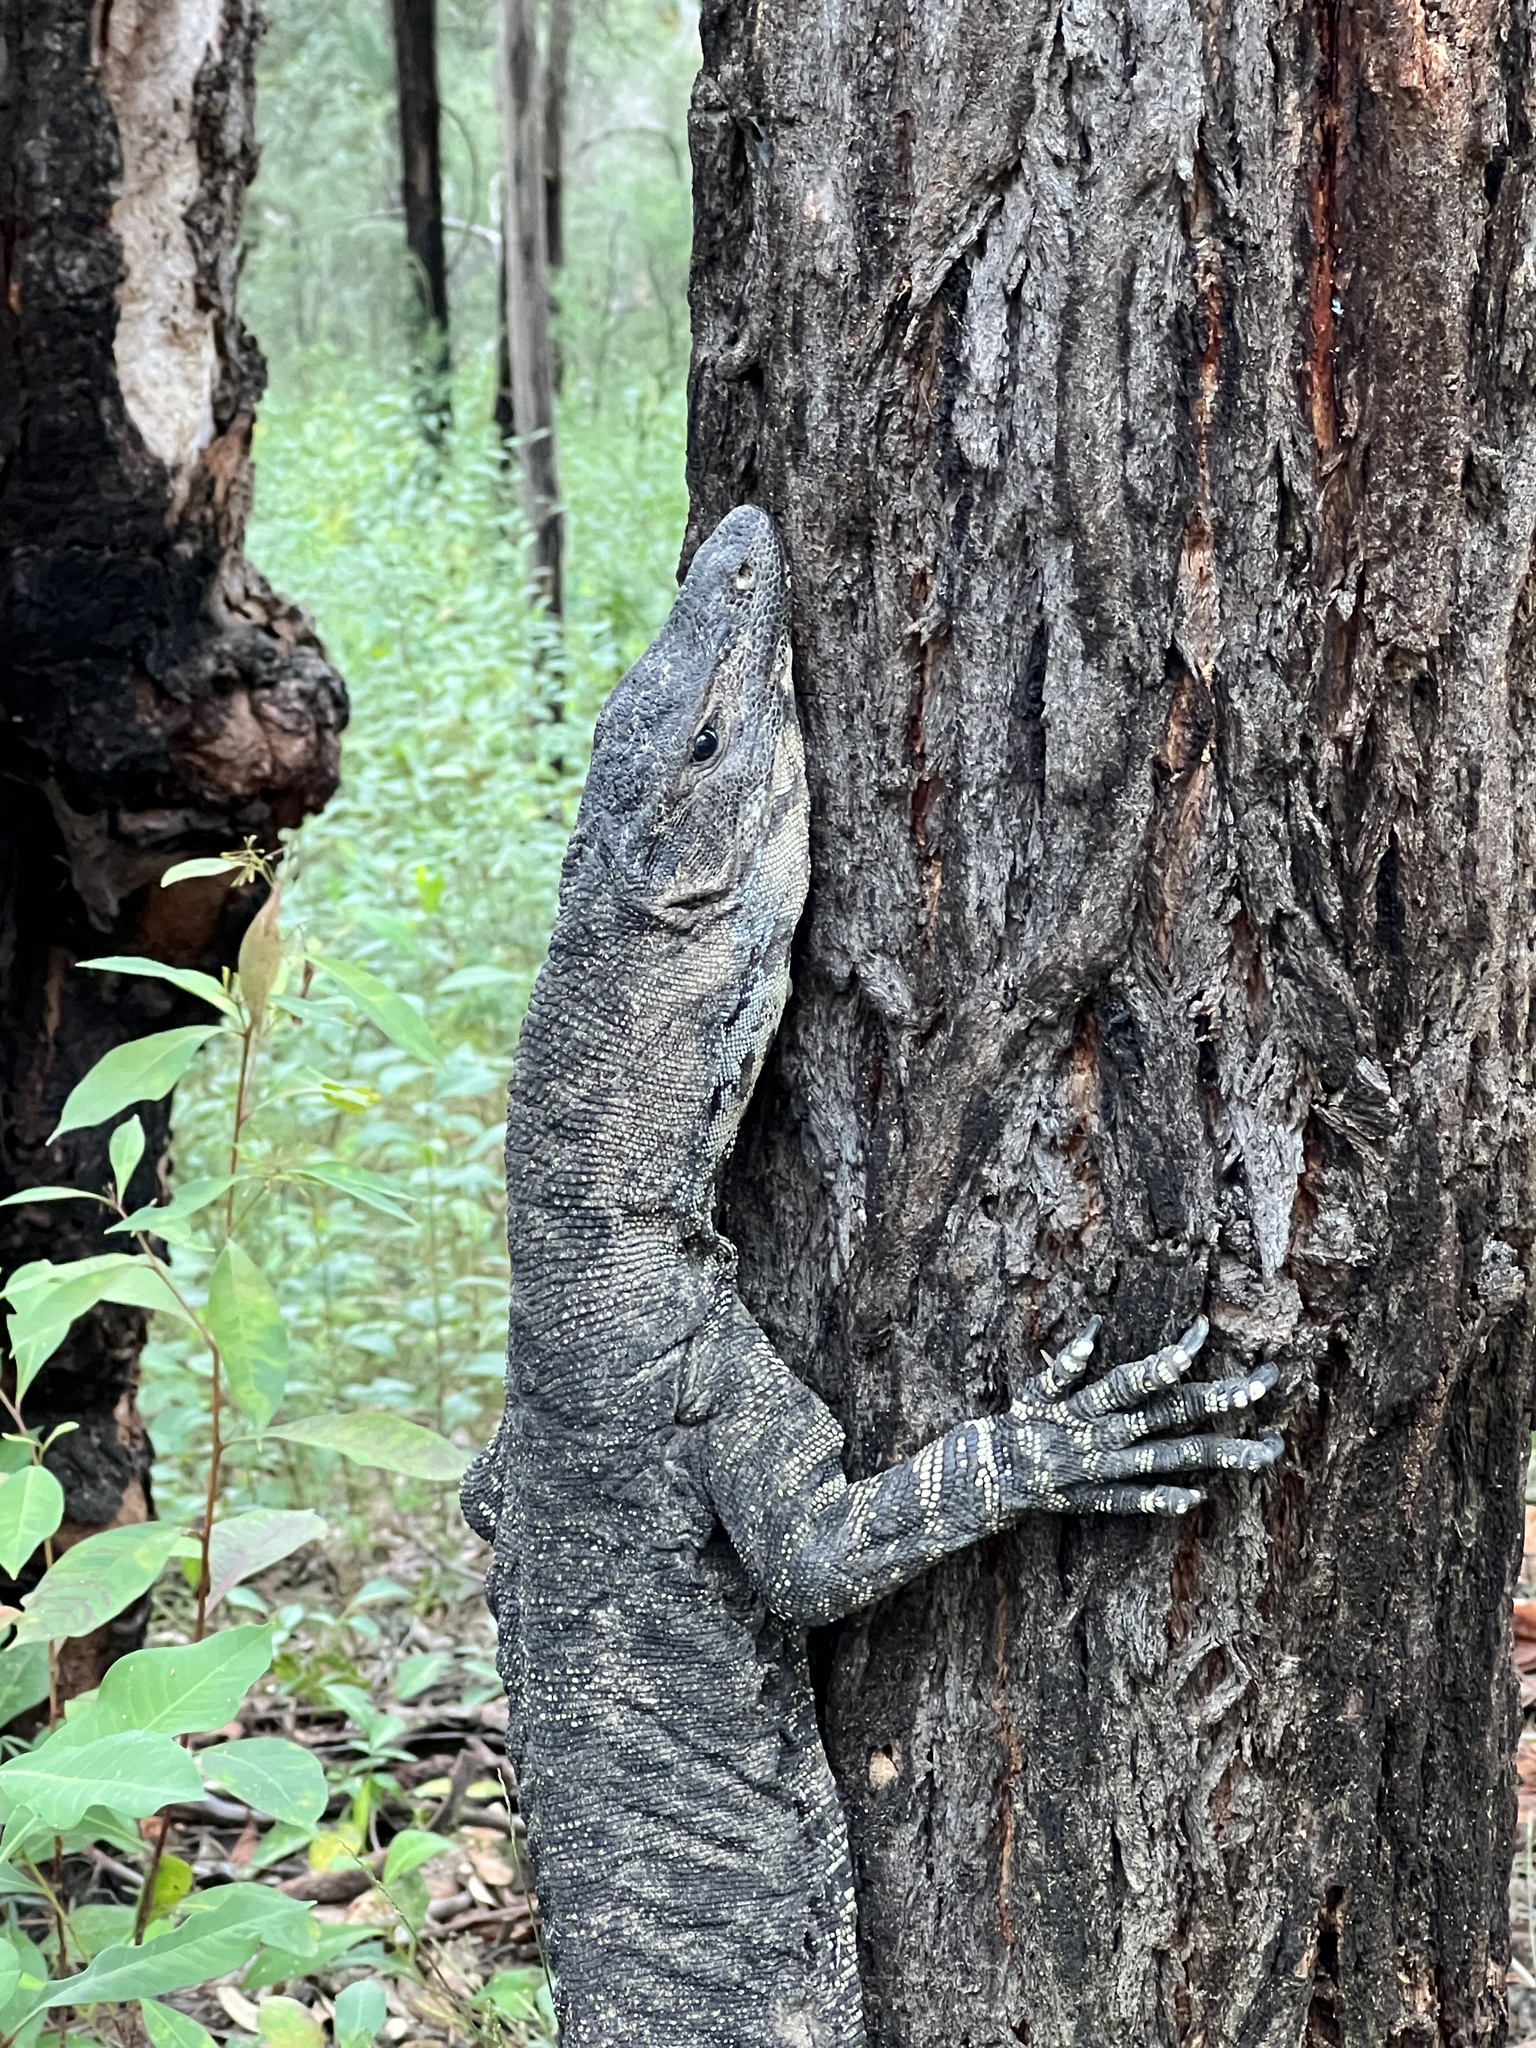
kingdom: Animalia
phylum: Chordata
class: Squamata
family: Varanidae
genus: Varanus
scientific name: Varanus varius
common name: Lace monitor
